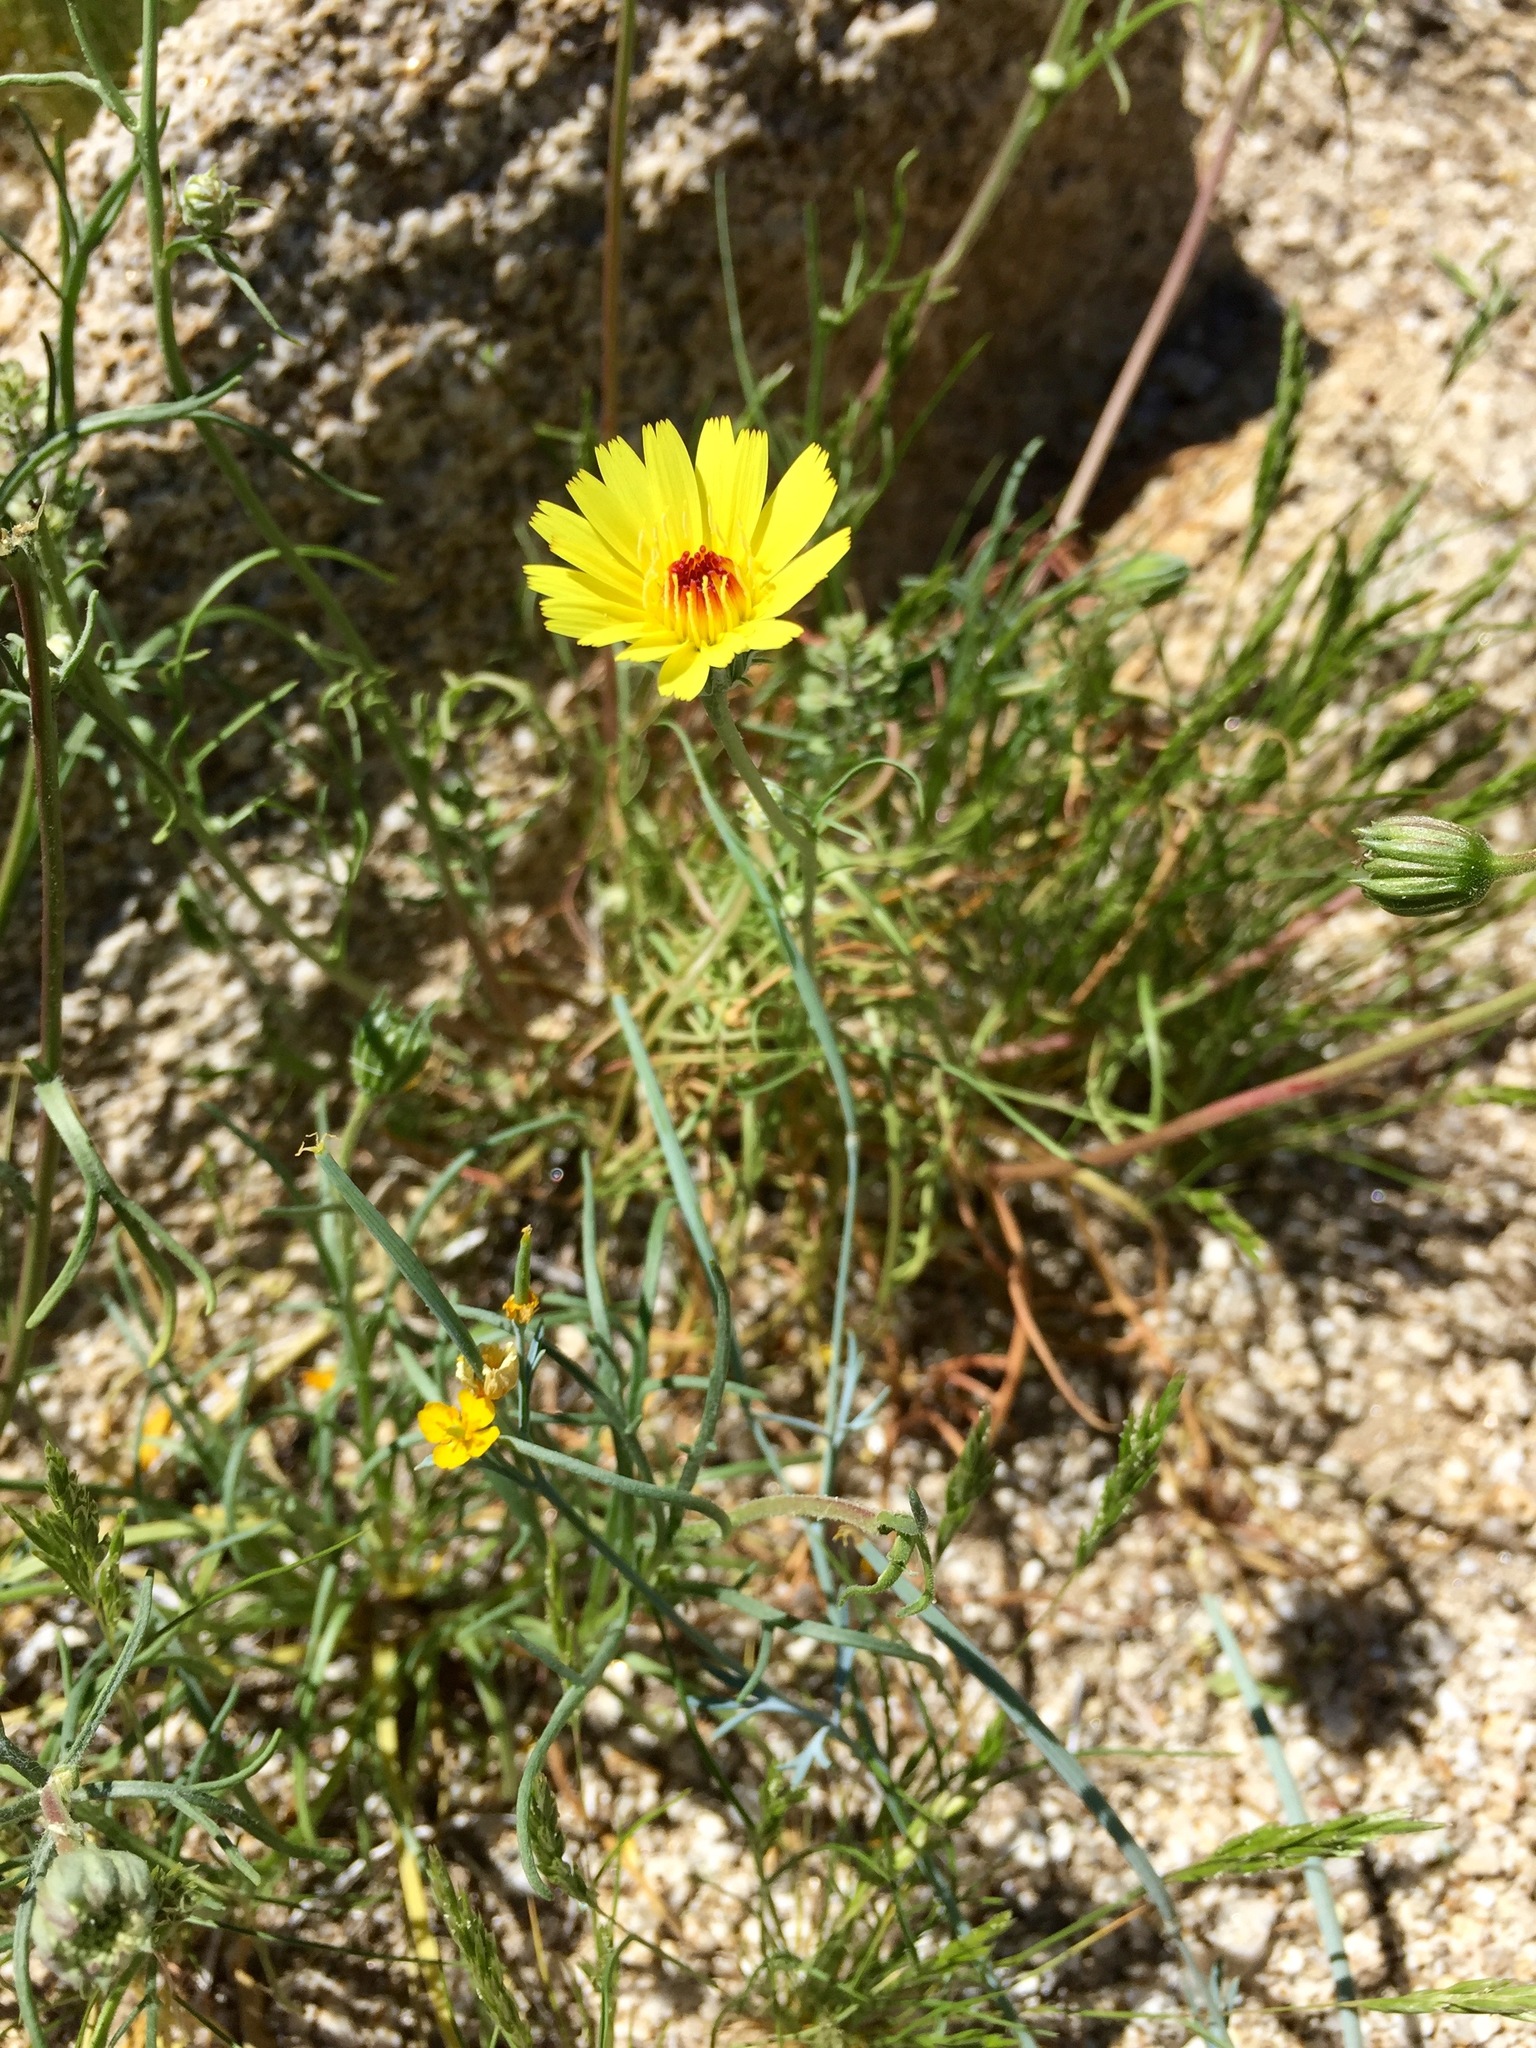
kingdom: Plantae
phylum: Tracheophyta
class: Magnoliopsida
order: Asterales
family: Asteraceae
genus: Malacothrix
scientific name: Malacothrix glabrata
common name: Smooth desert-dandelion
